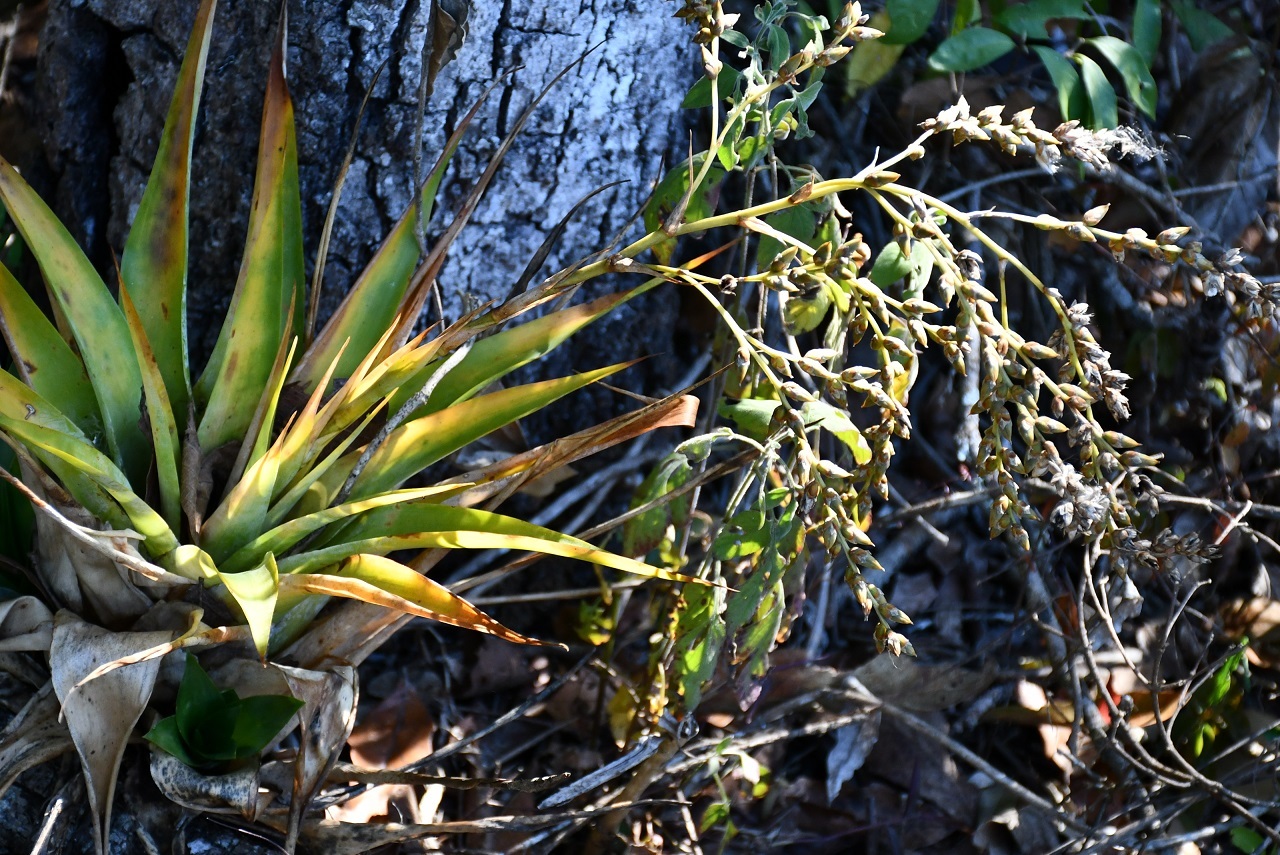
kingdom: Plantae
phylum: Tracheophyta
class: Liliopsida
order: Poales
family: Bromeliaceae
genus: Catopsis
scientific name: Catopsis paniculata
